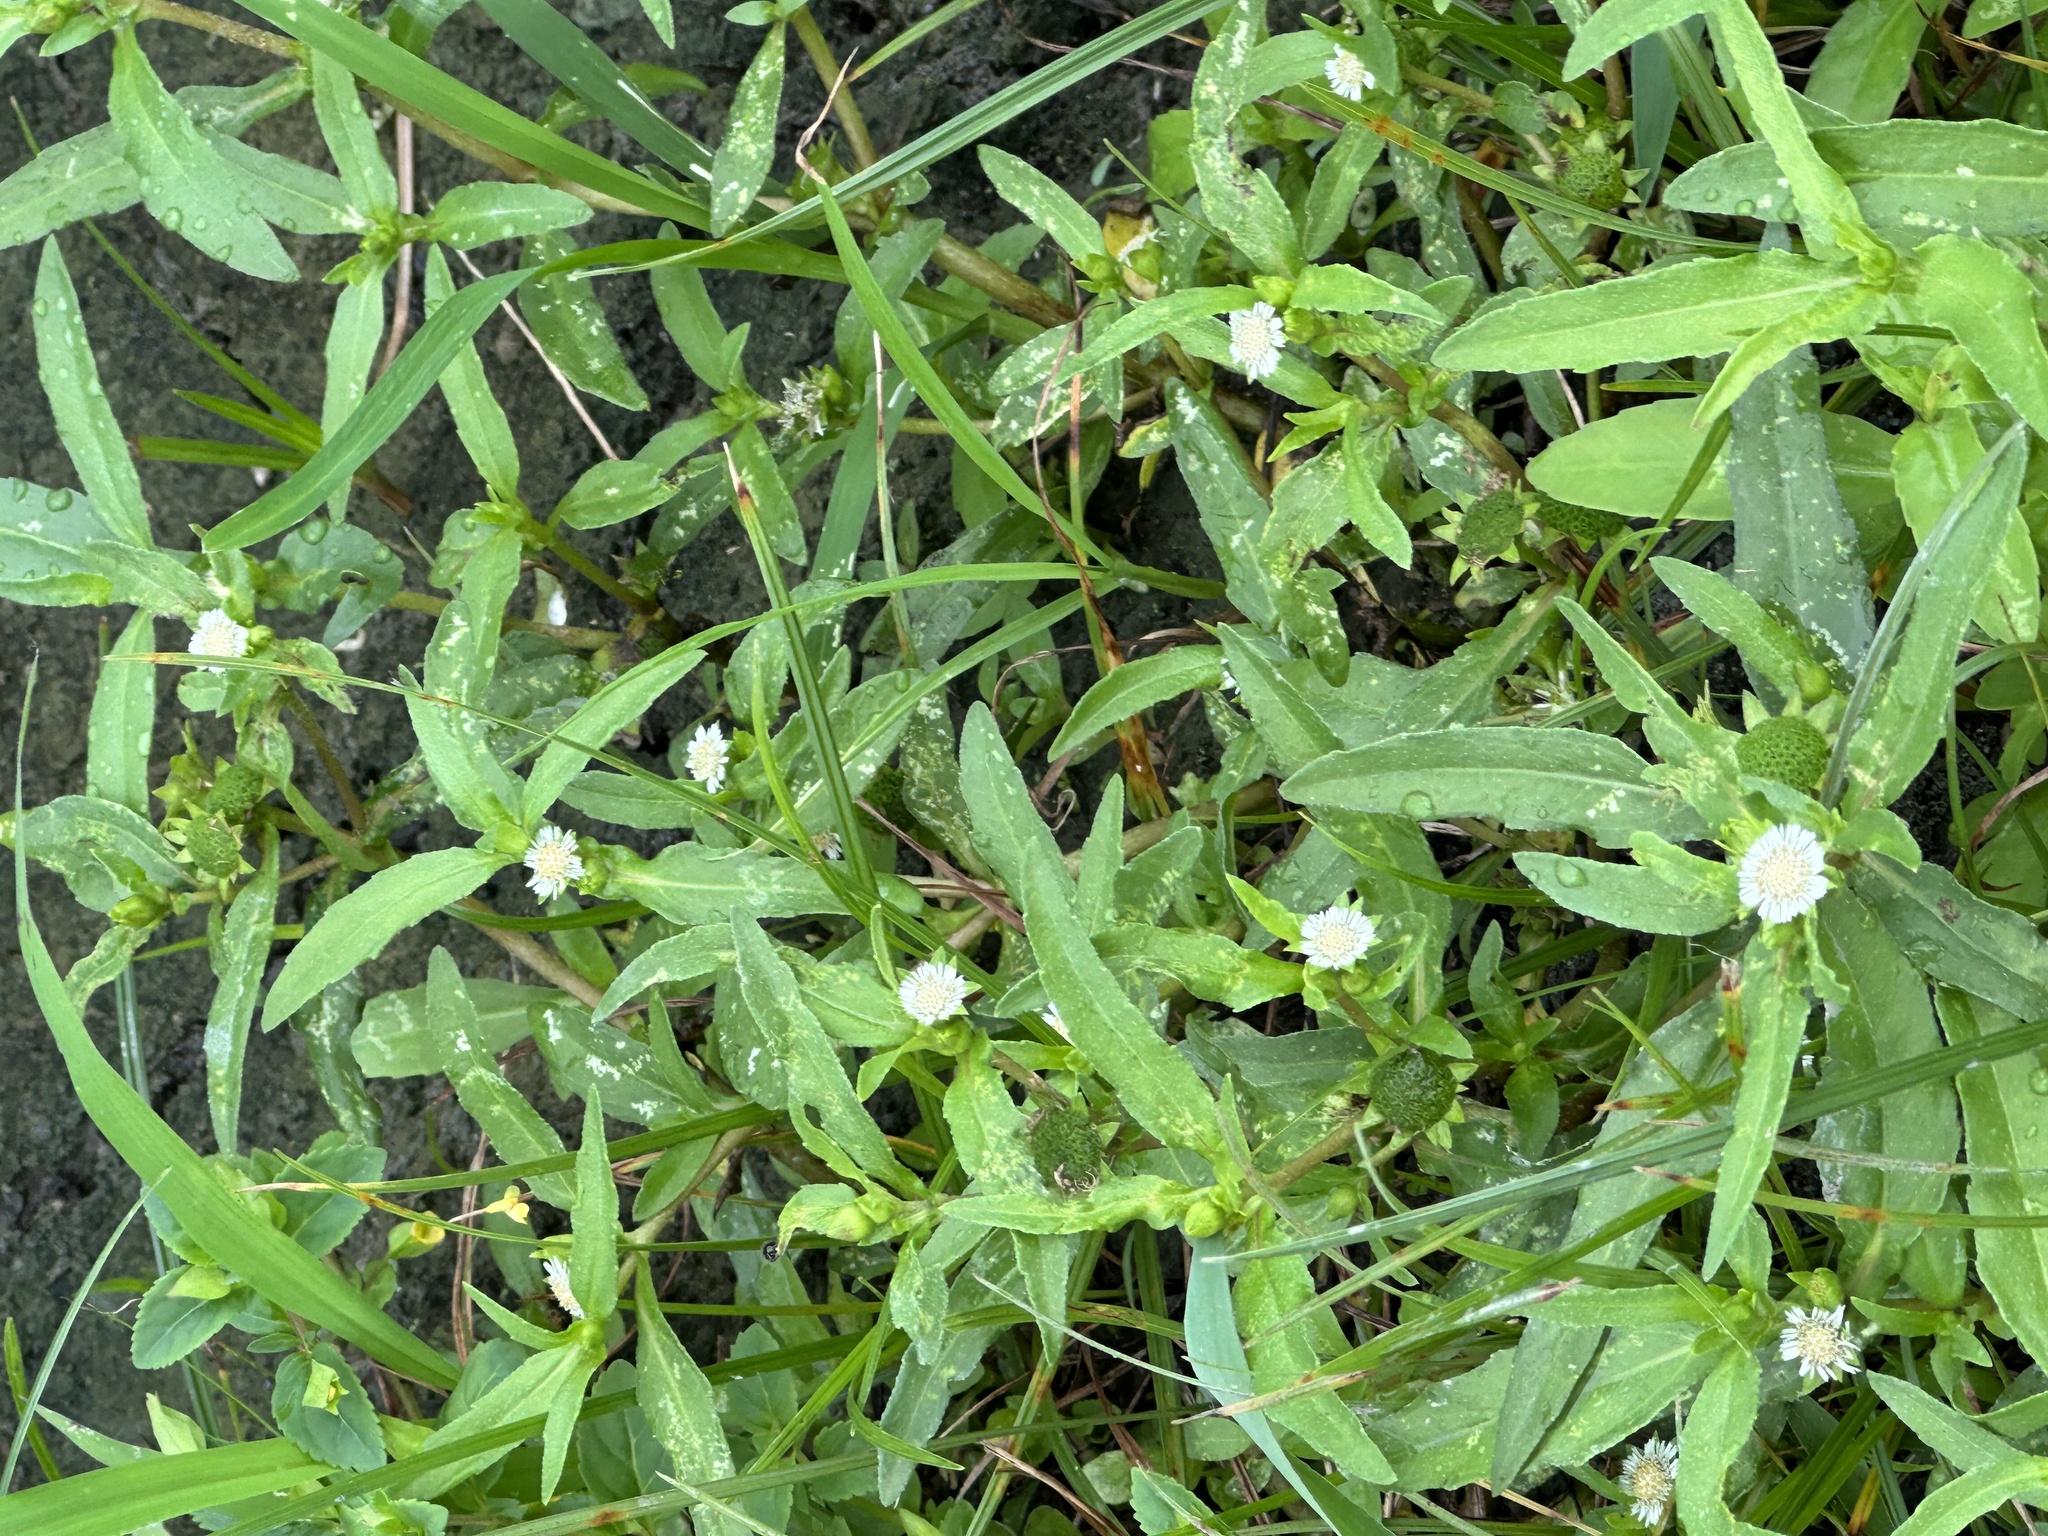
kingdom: Plantae
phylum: Tracheophyta
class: Magnoliopsida
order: Asterales
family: Asteraceae
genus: Eclipta
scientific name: Eclipta prostrata
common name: False daisy
